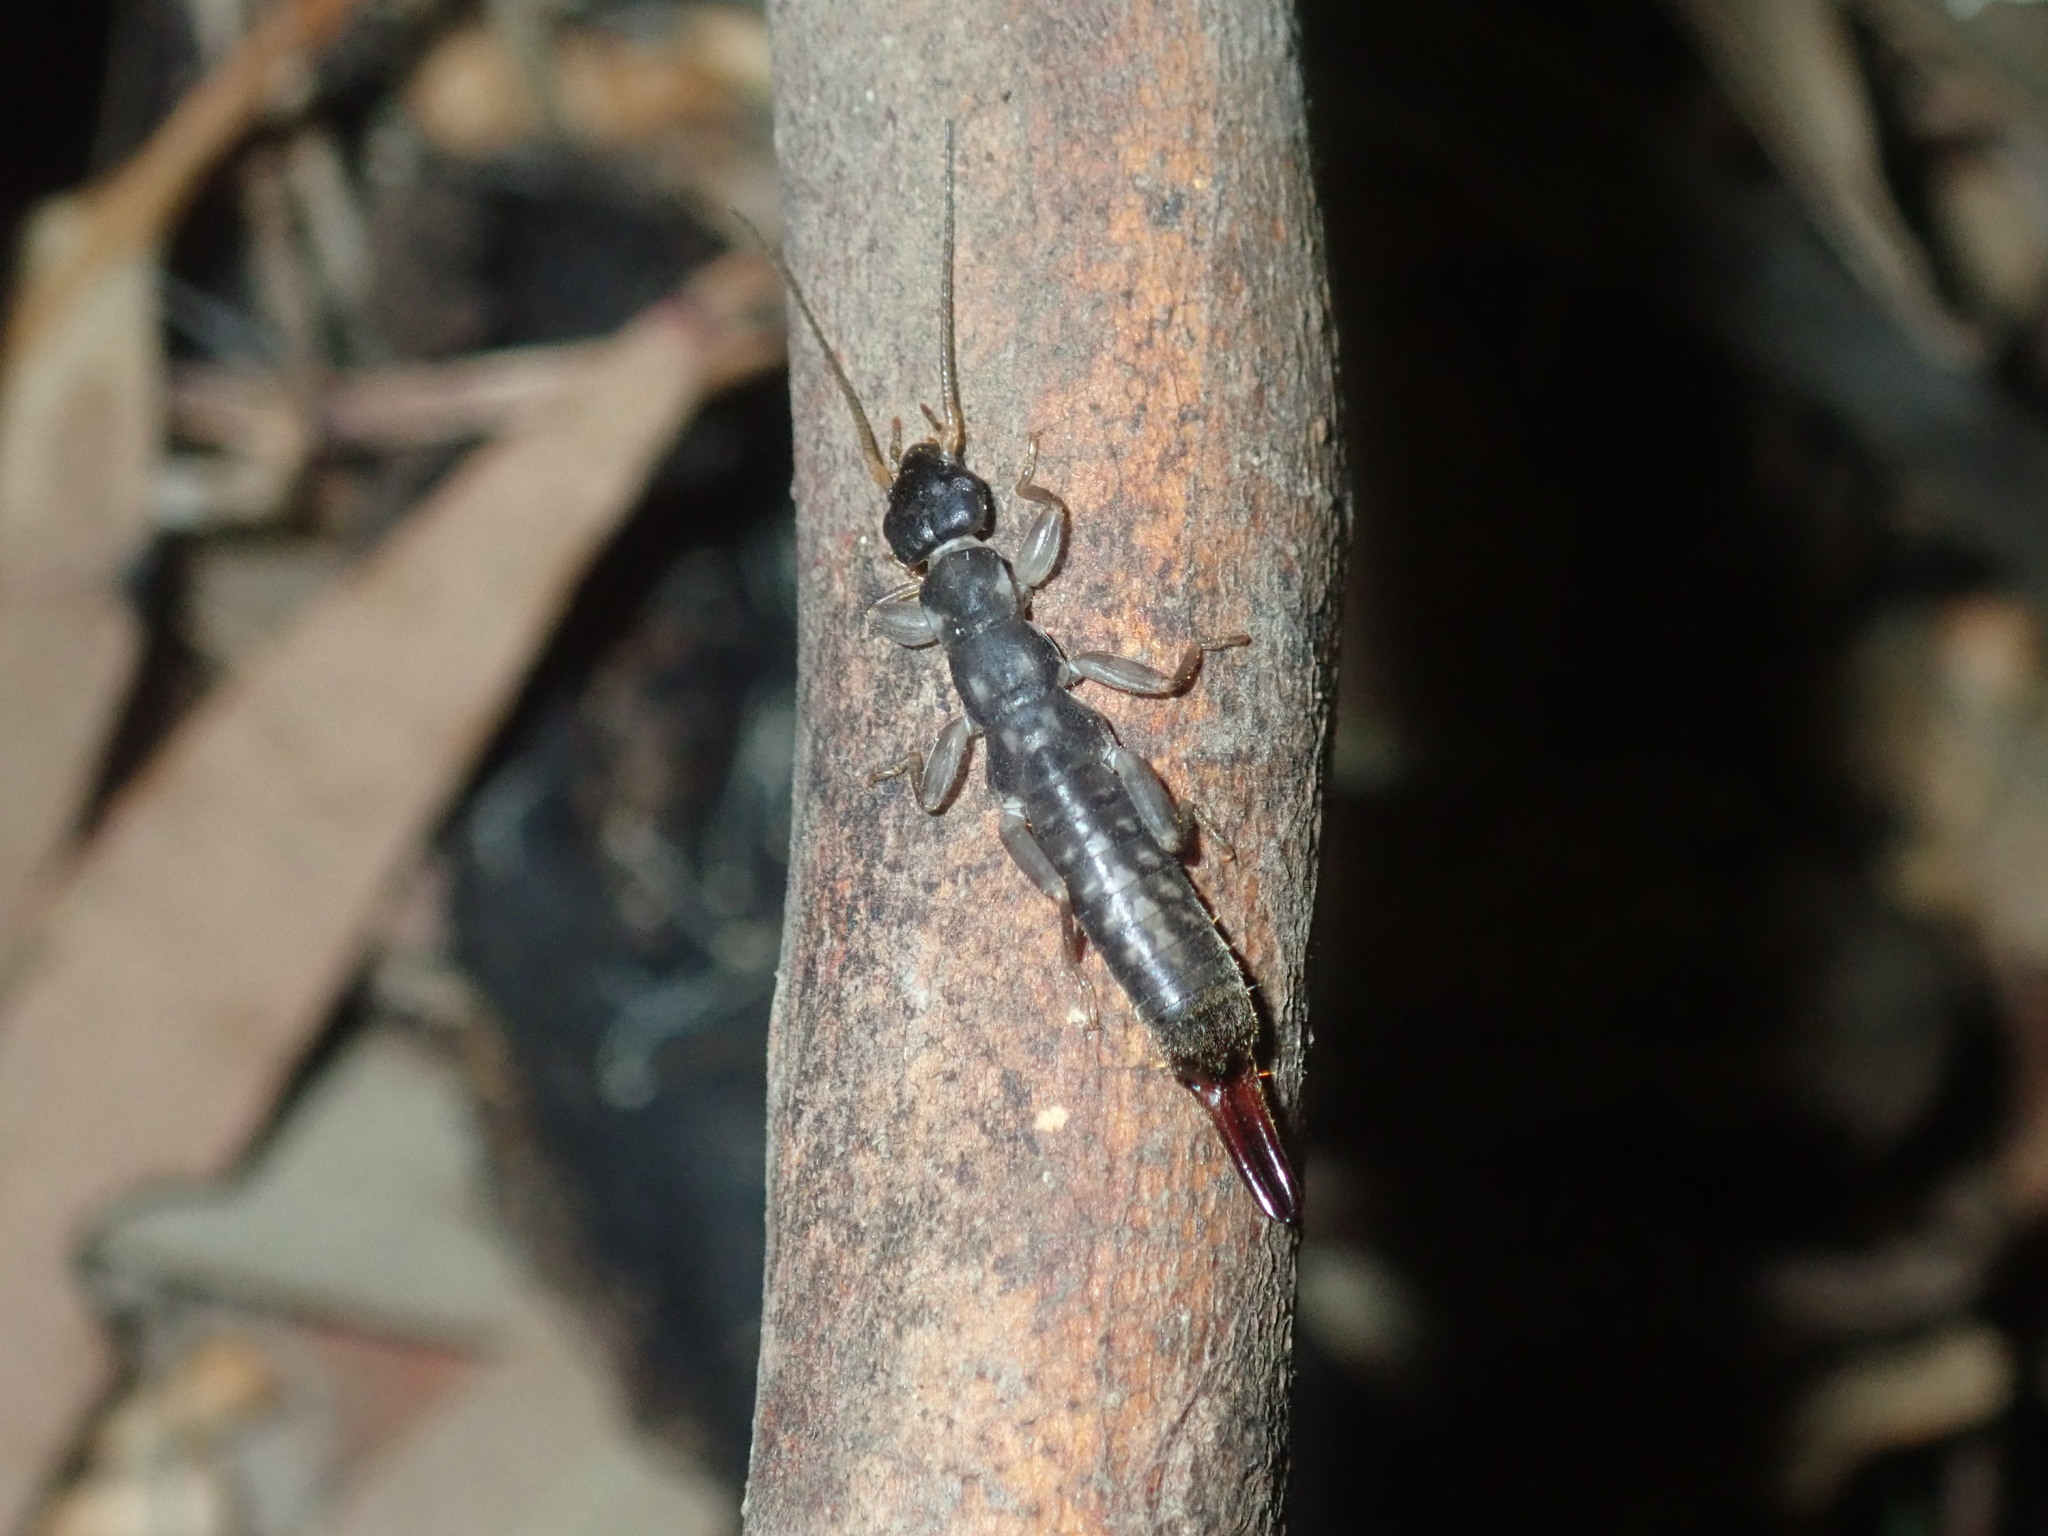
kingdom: Animalia
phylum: Arthropoda
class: Insecta
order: Dermaptera
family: Pygidicranidae
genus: Cranopygia
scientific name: Cranopygia lueddemanni
